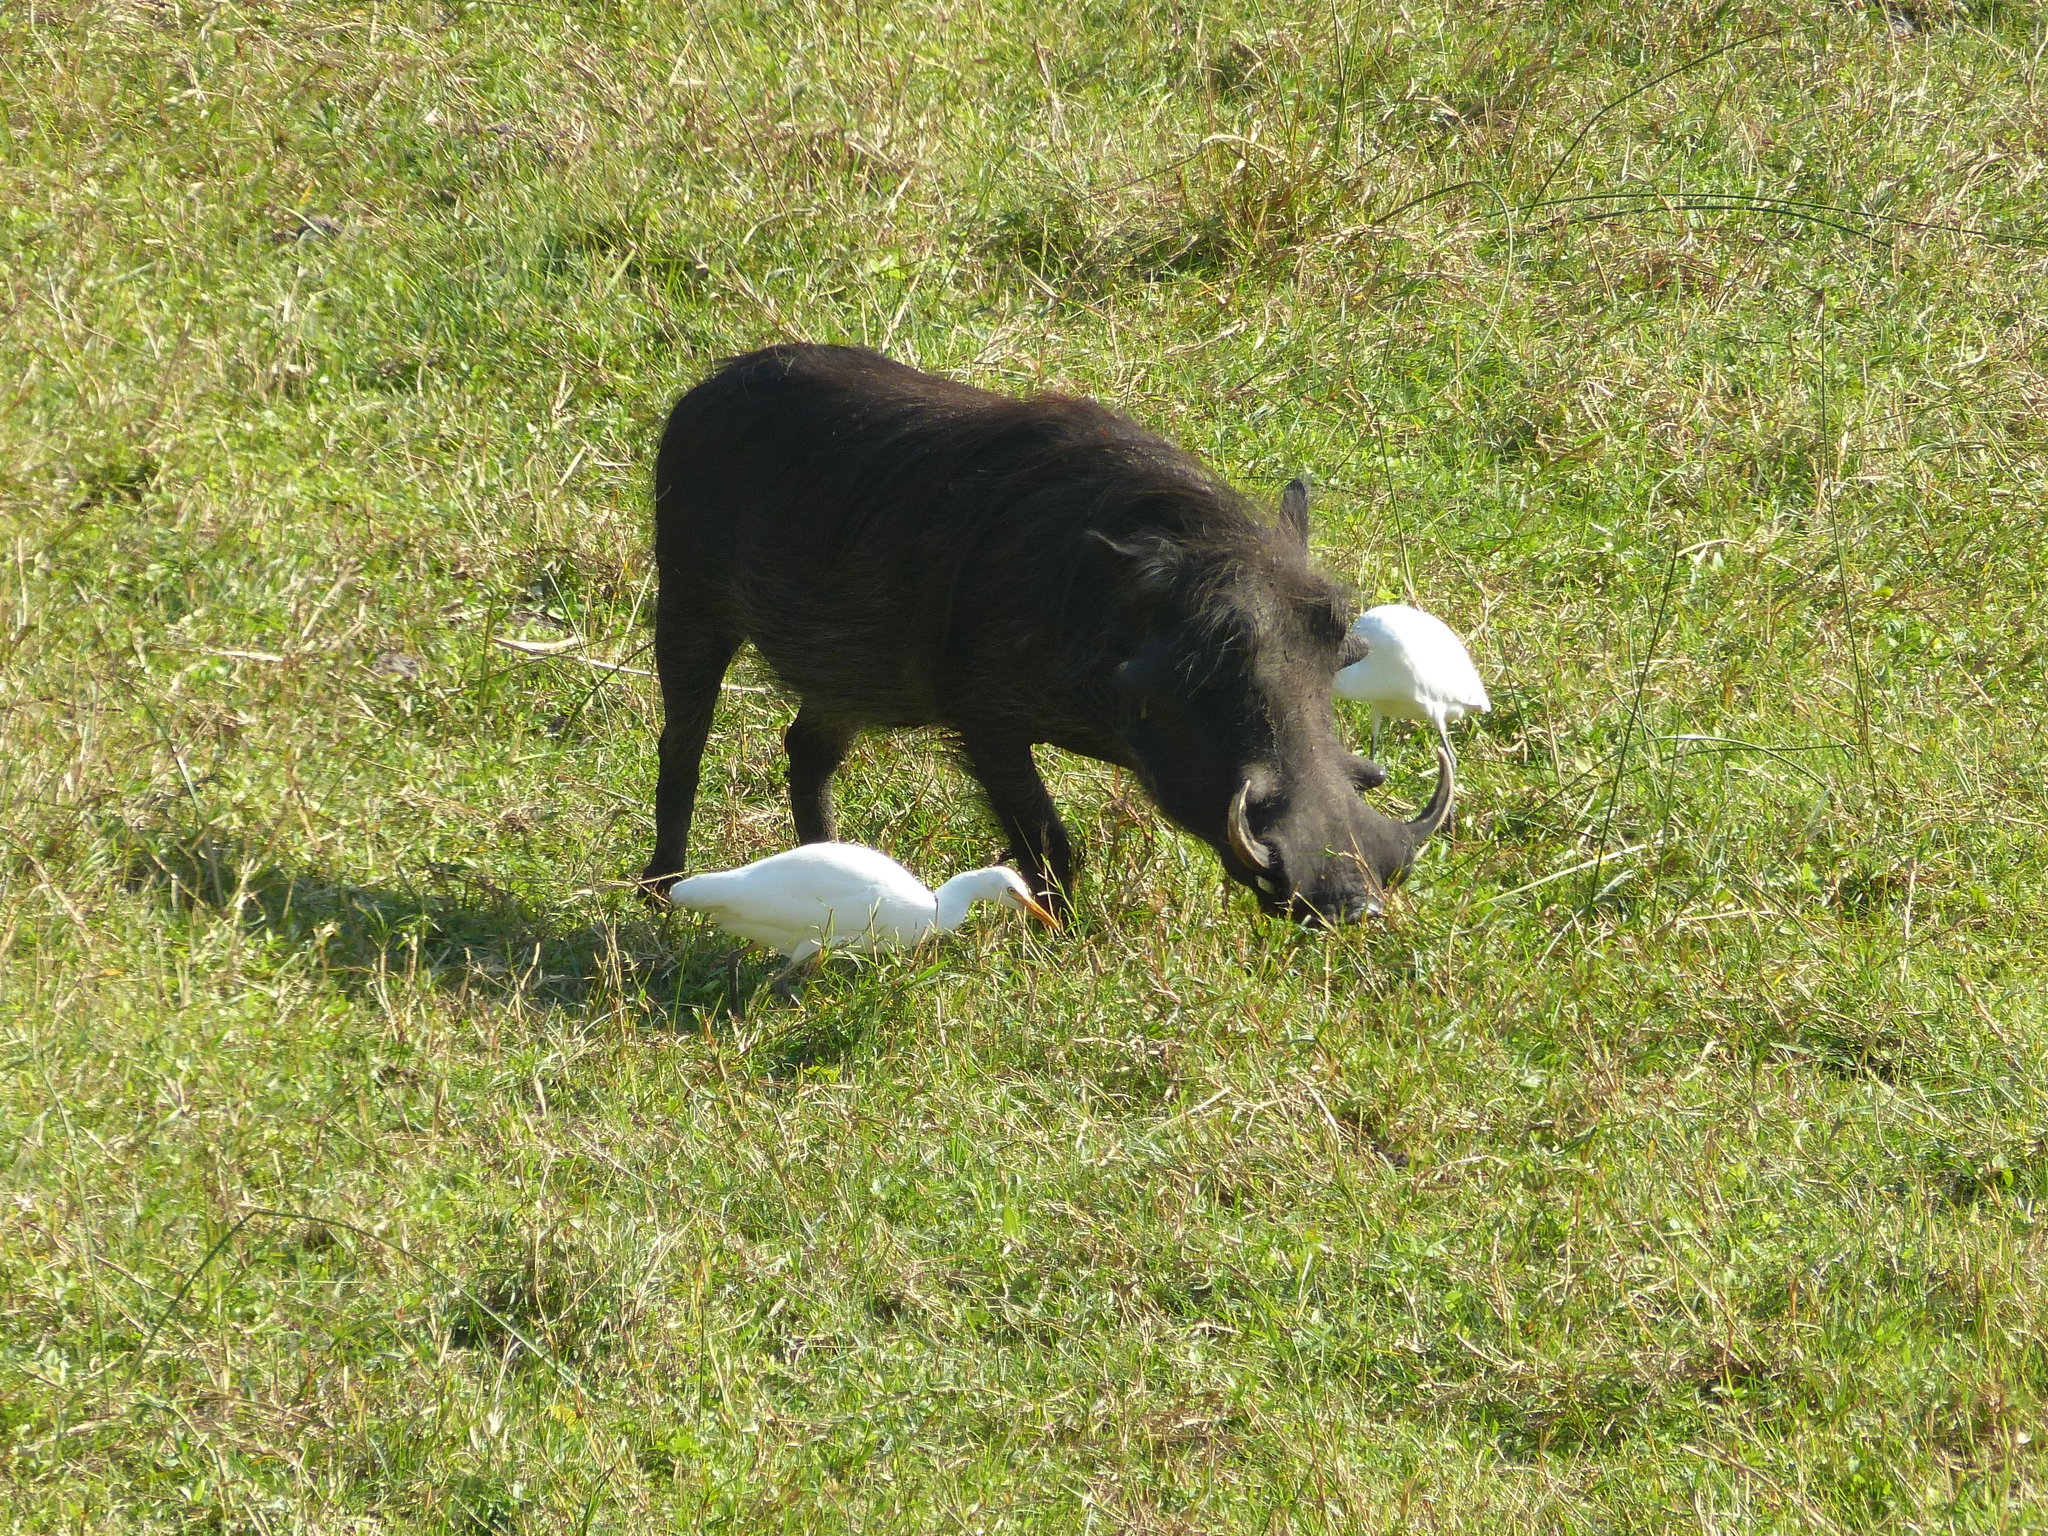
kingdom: Animalia
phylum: Chordata
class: Mammalia
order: Artiodactyla
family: Suidae
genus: Phacochoerus
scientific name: Phacochoerus africanus
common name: Common warthog
